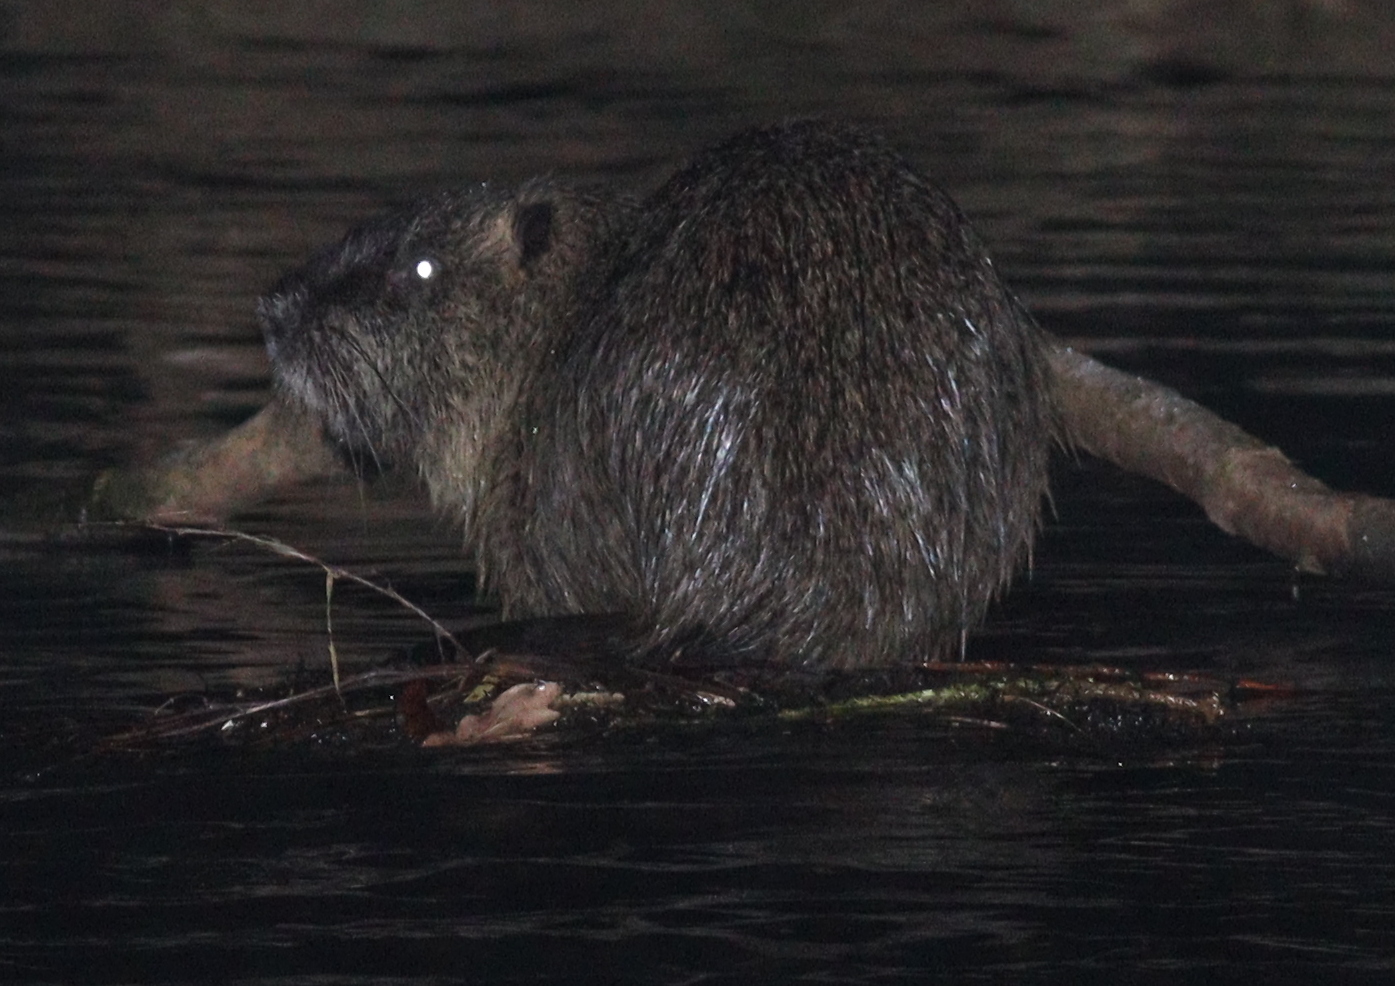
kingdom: Animalia
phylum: Chordata
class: Mammalia
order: Rodentia
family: Myocastoridae
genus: Myocastor
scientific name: Myocastor coypus
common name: Coypu
